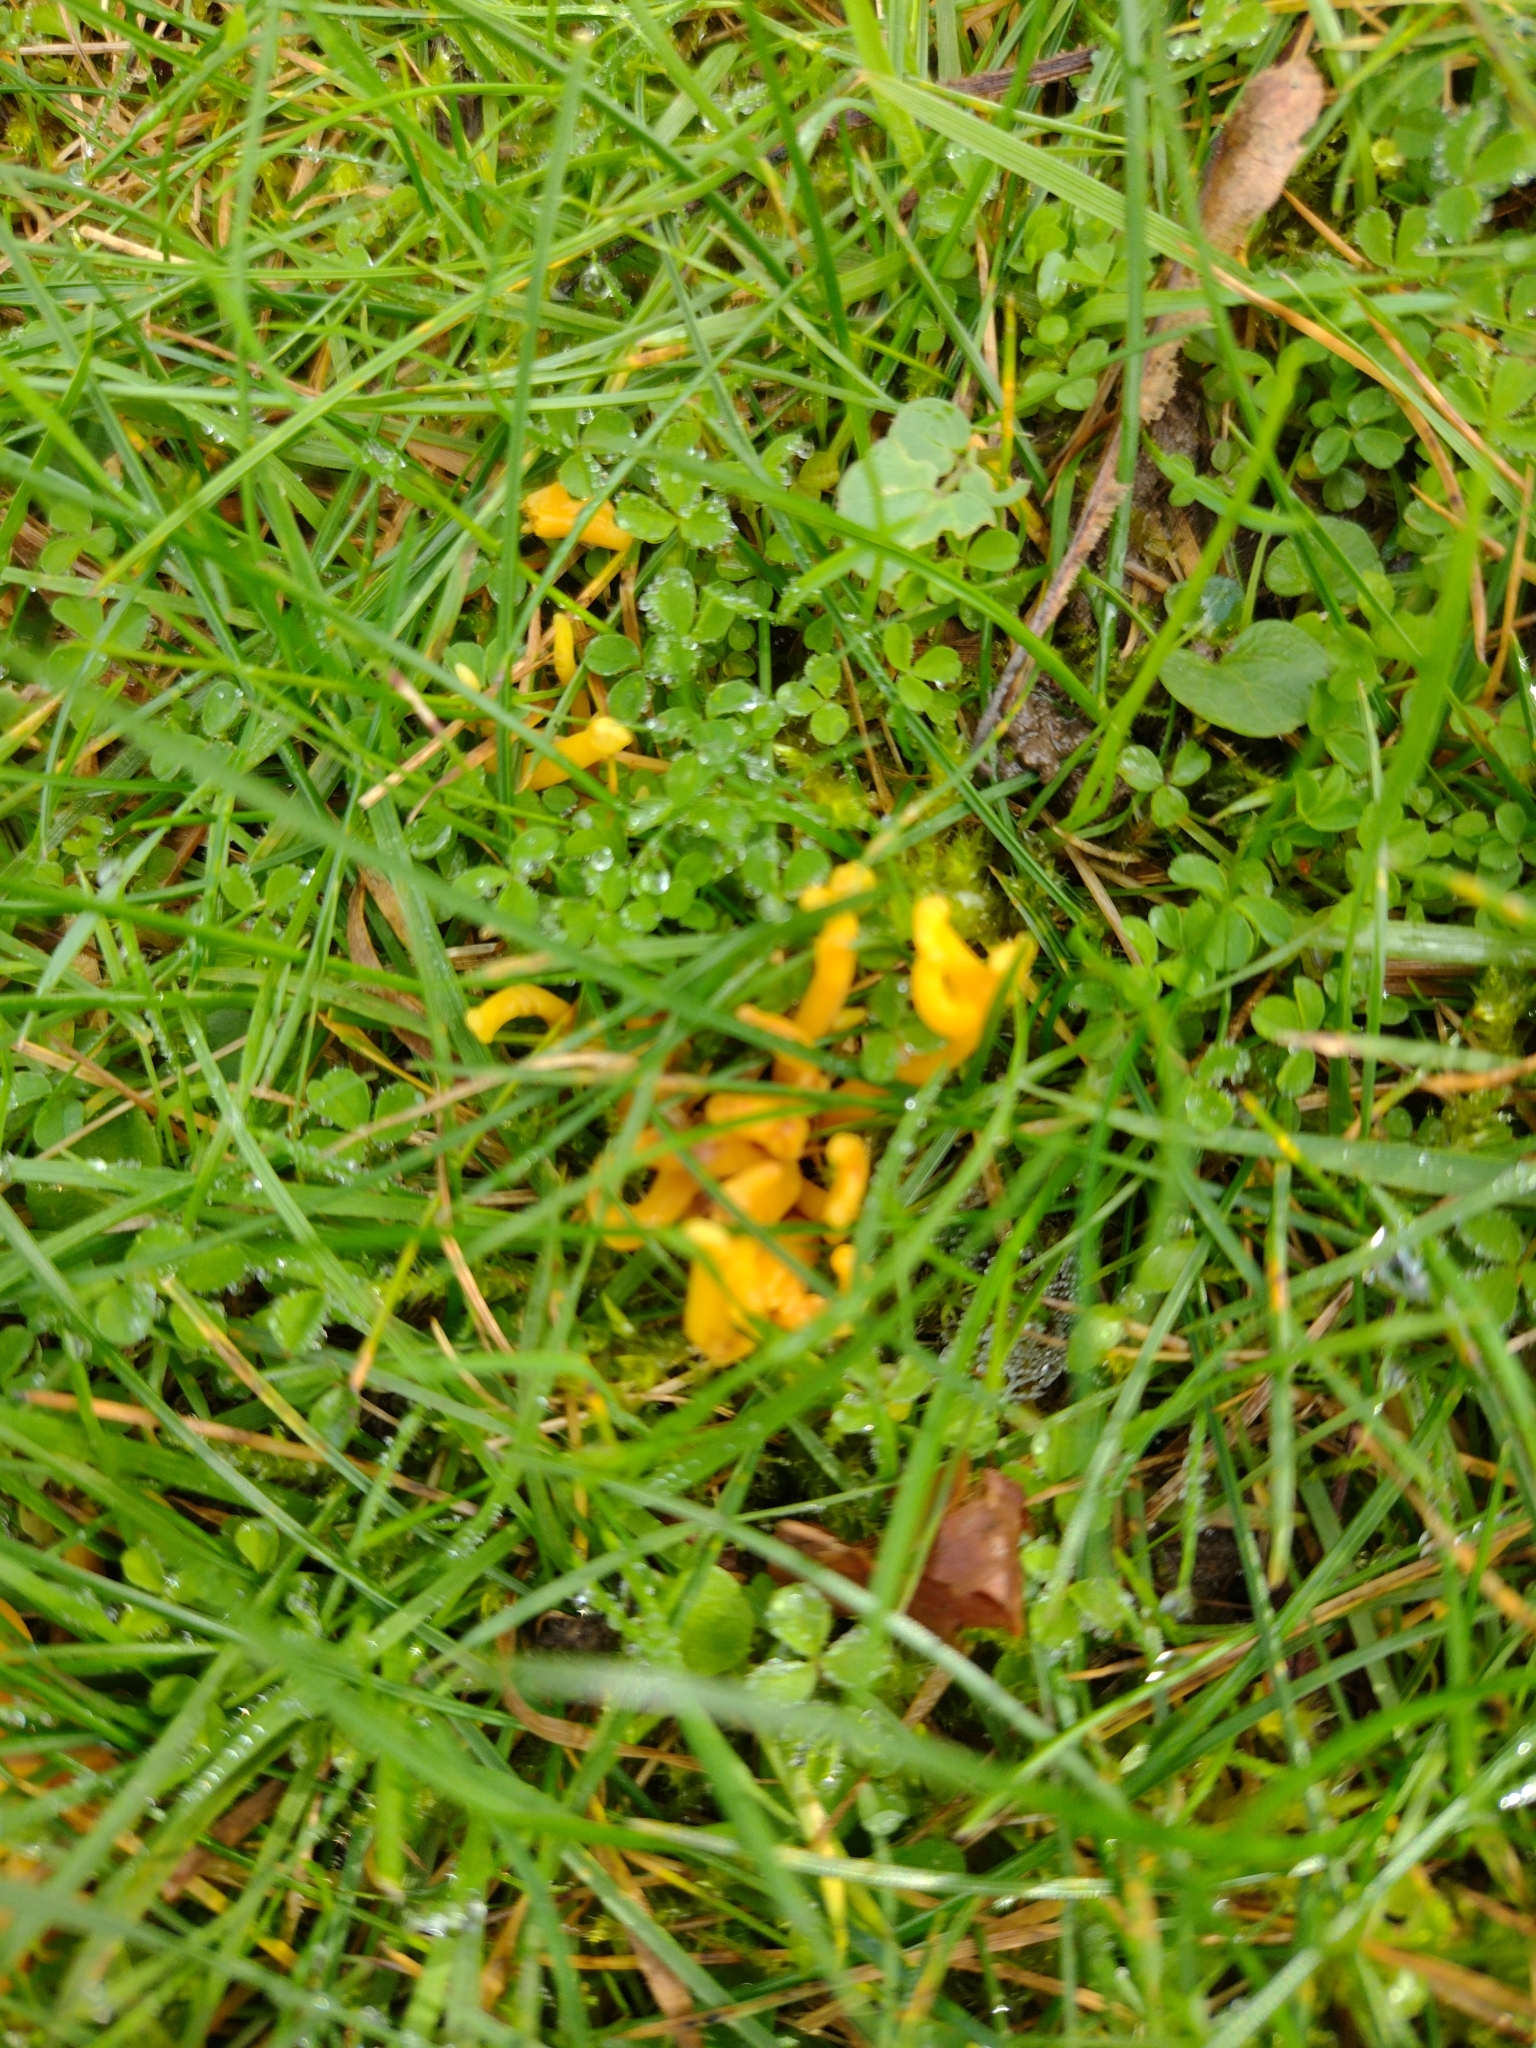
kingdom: Fungi
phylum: Basidiomycota
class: Agaricomycetes
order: Agaricales
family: Clavariaceae
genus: Clavulinopsis
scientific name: Clavulinopsis corniculata
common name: Meadow coral
